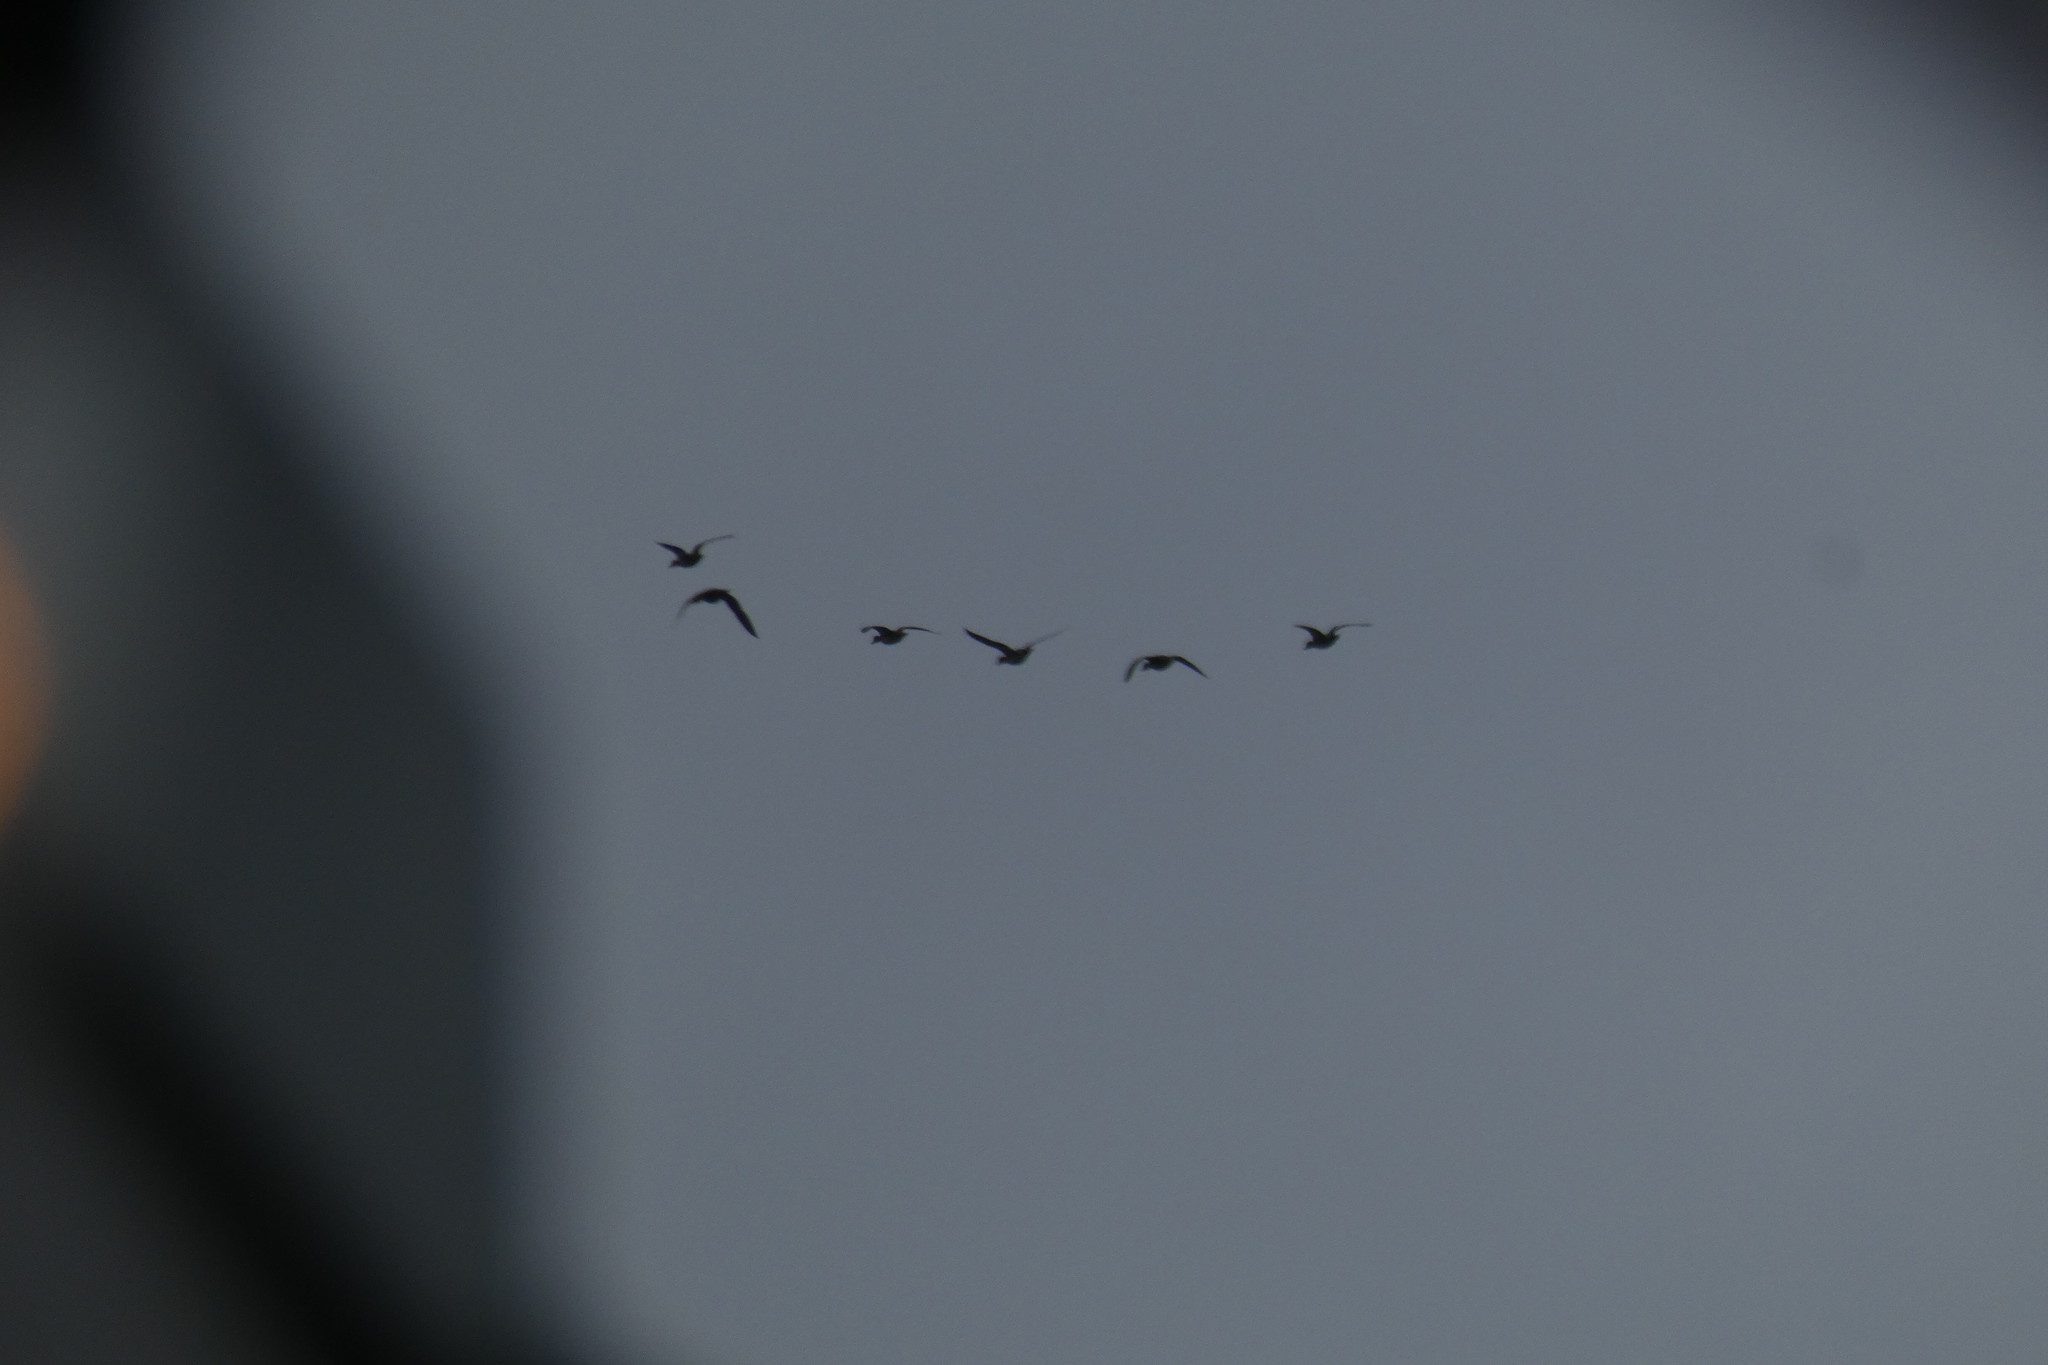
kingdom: Animalia
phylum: Chordata
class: Aves
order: Anseriformes
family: Anatidae
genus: Anas
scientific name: Anas acuta
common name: Northern pintail
